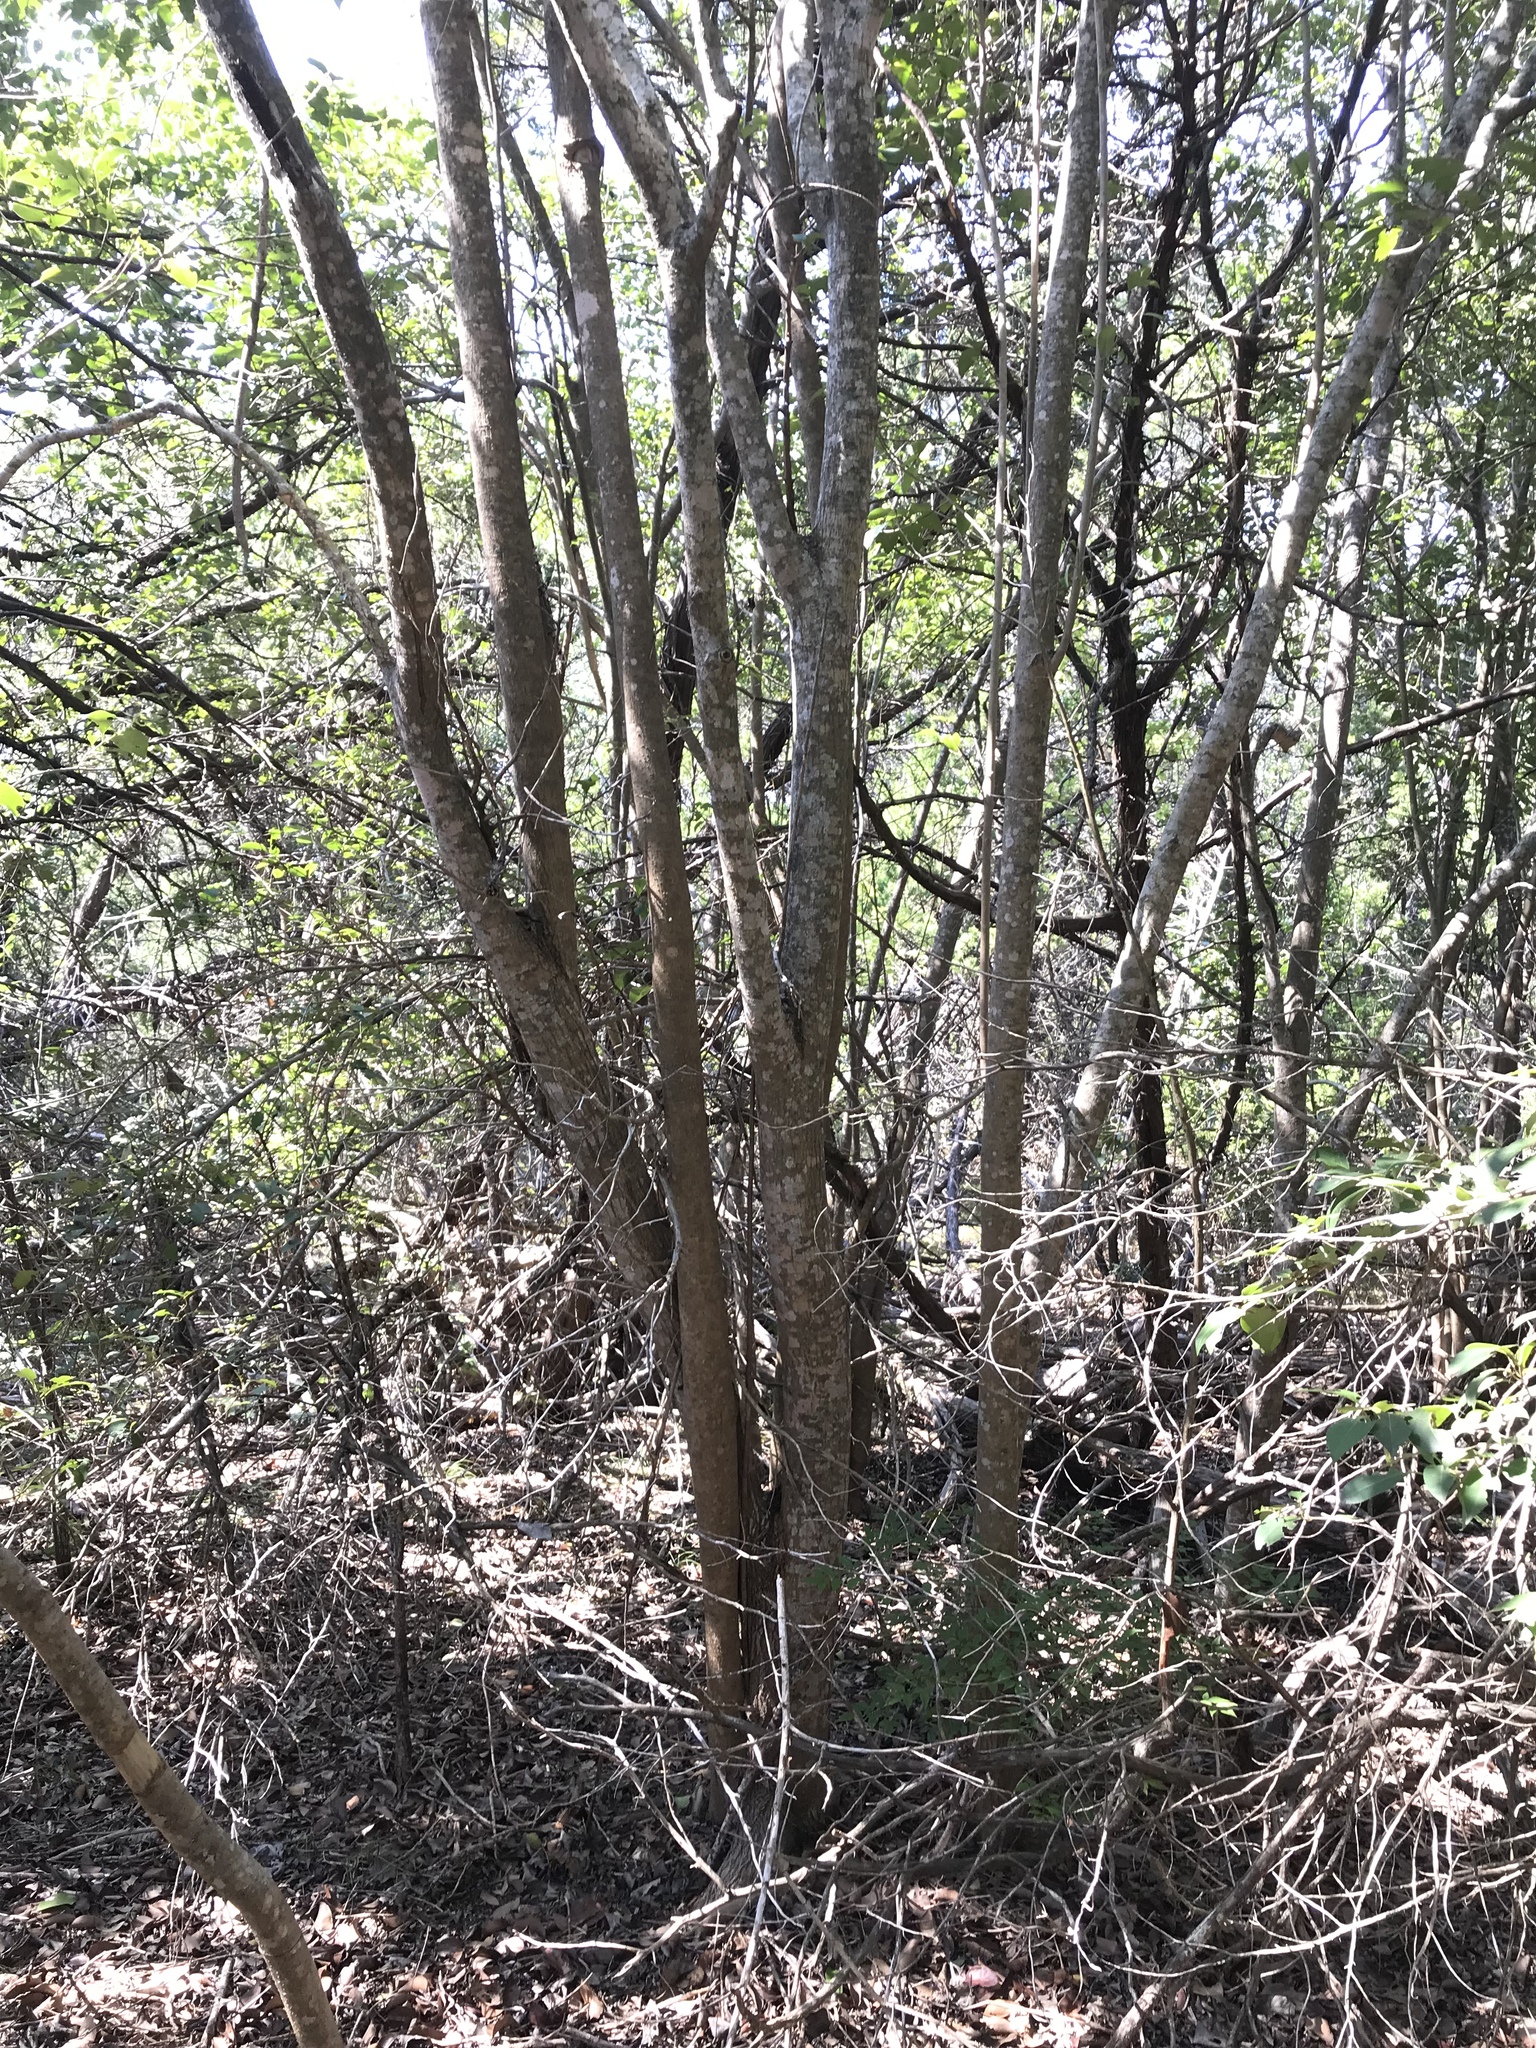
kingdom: Plantae
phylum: Tracheophyta
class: Magnoliopsida
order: Lamiales
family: Oleaceae
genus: Ligustrum
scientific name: Ligustrum lucidum
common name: Glossy privet
